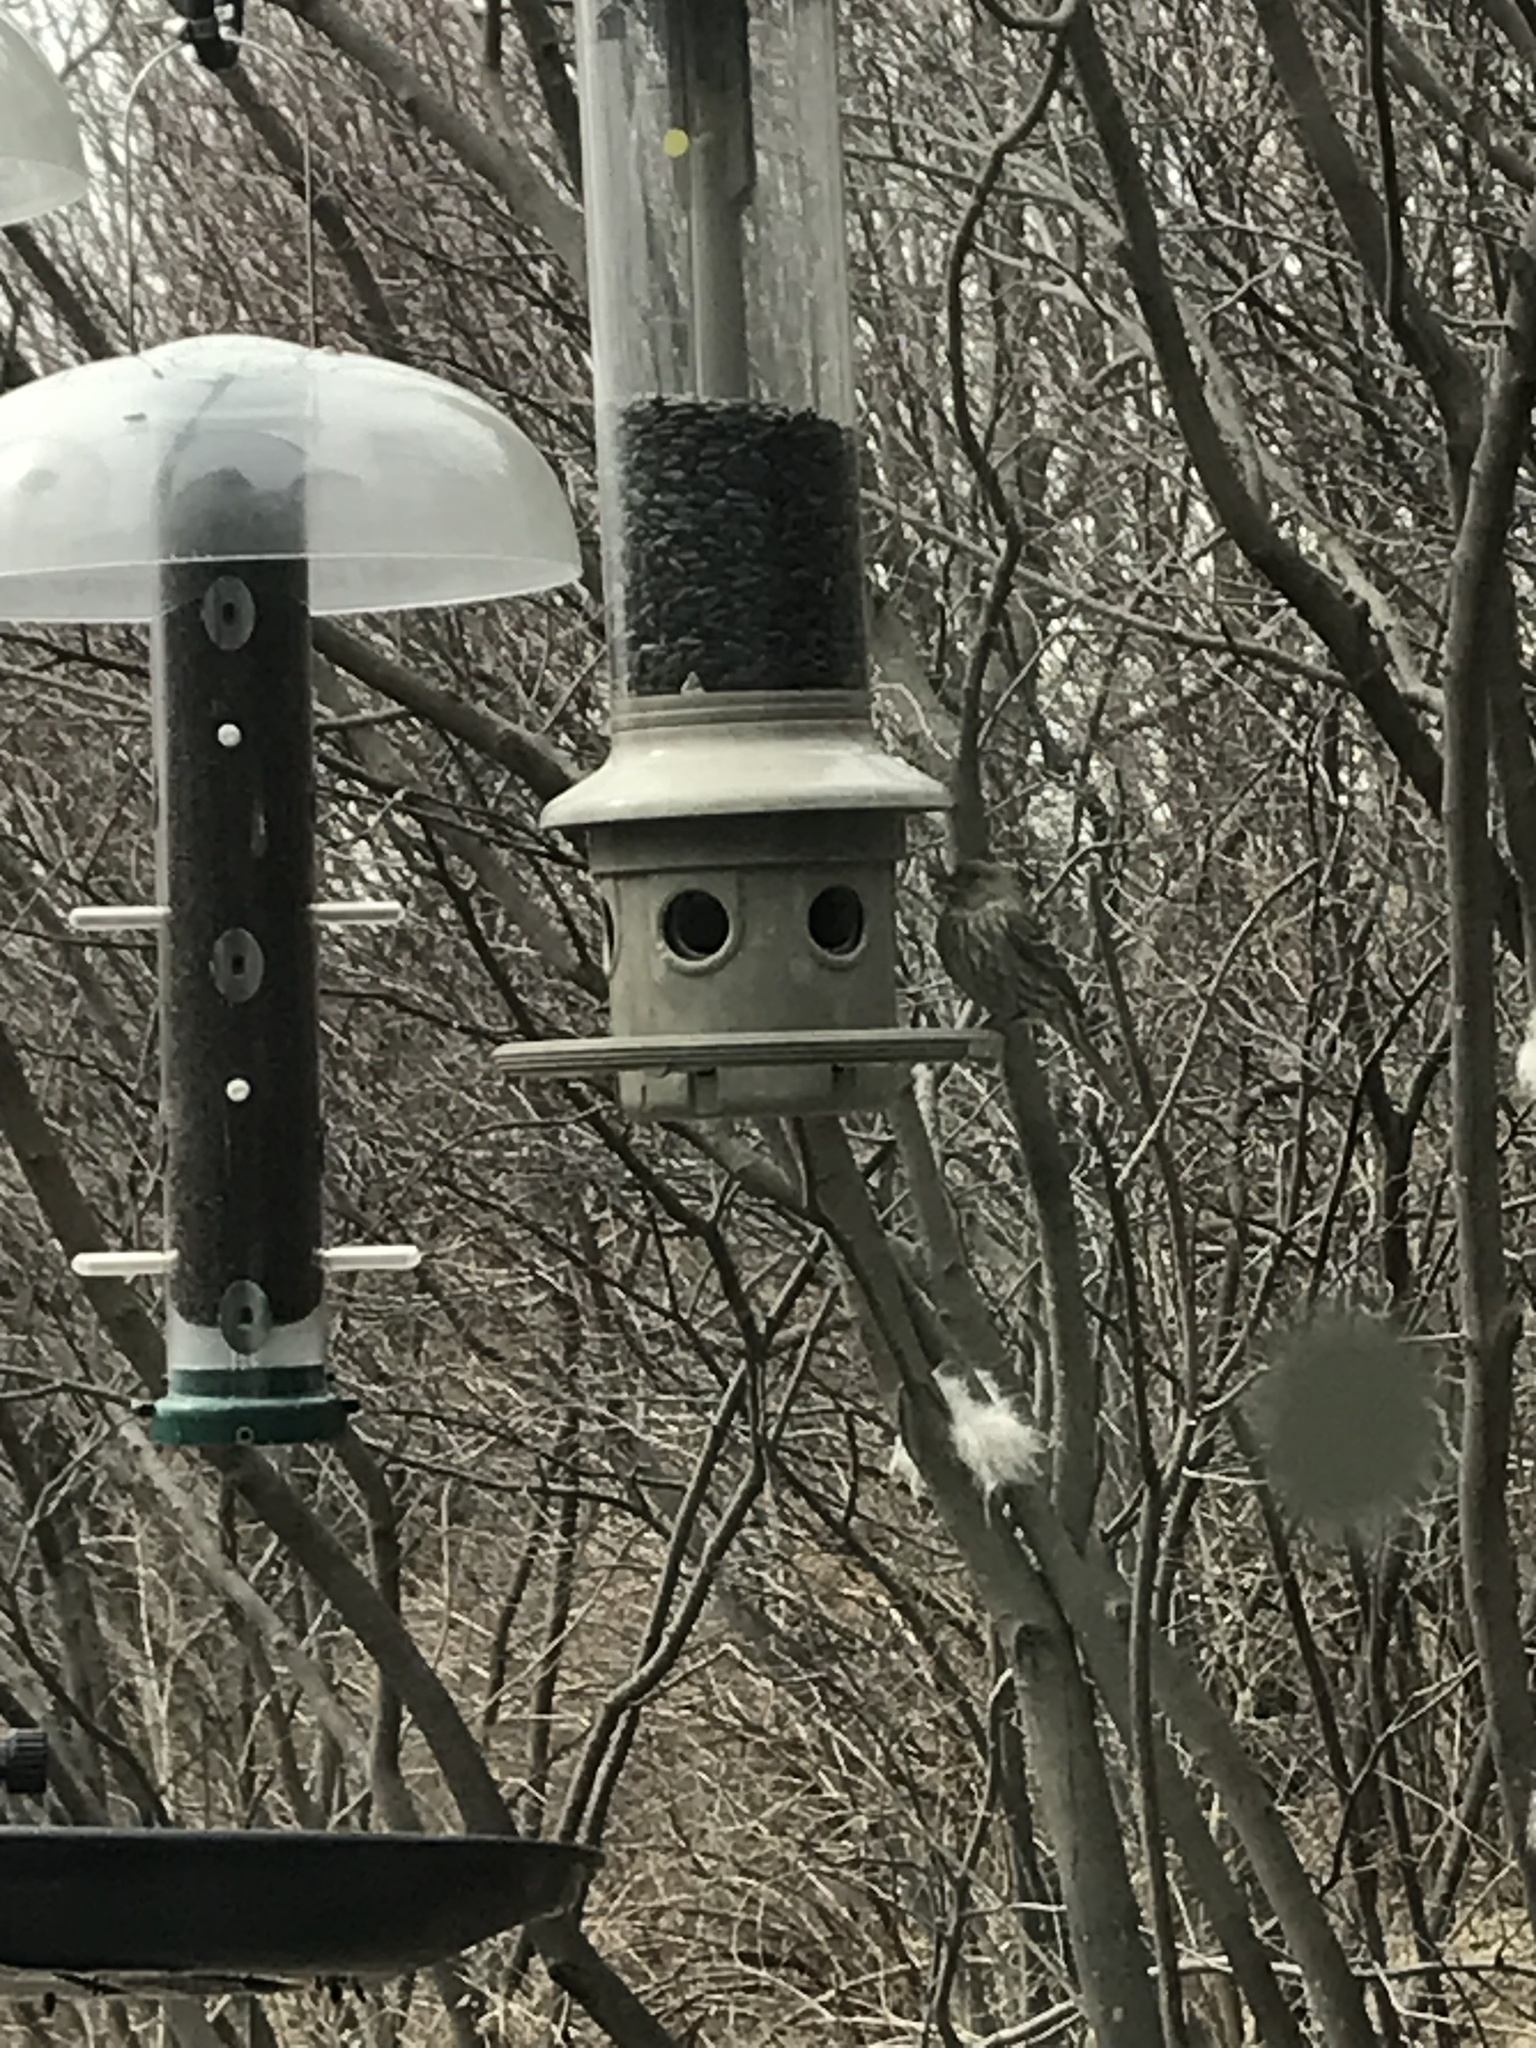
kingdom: Animalia
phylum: Chordata
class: Aves
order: Passeriformes
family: Fringillidae
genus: Haemorhous
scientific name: Haemorhous mexicanus
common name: House finch
